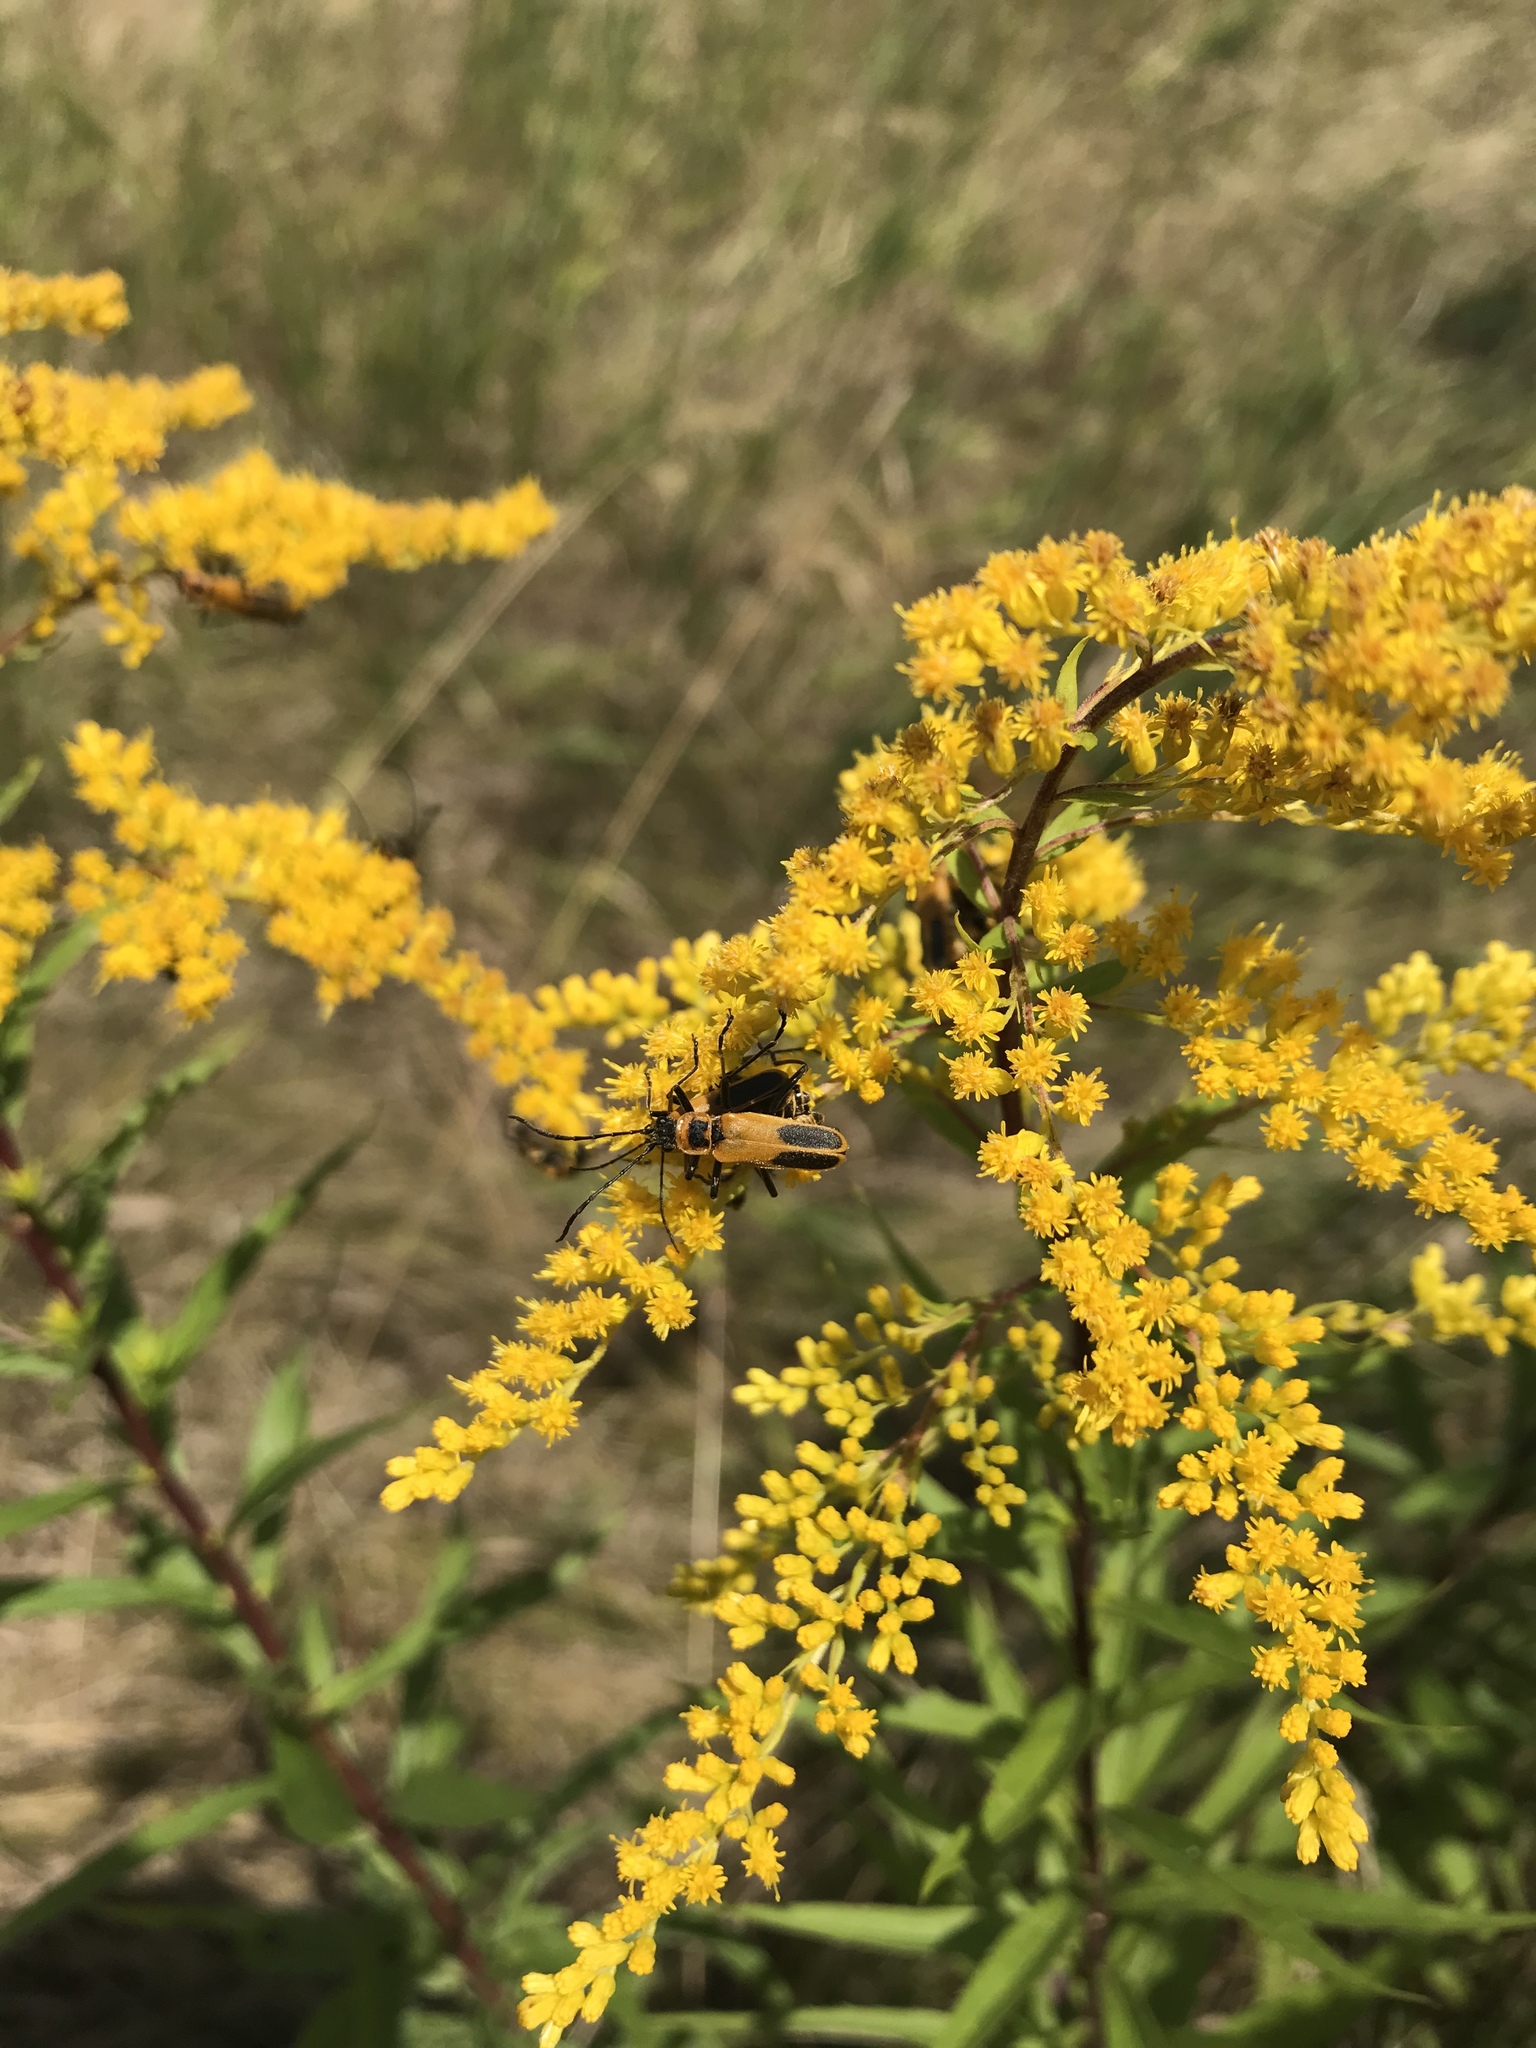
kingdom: Animalia
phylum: Arthropoda
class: Insecta
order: Coleoptera
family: Cantharidae
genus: Chauliognathus
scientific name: Chauliognathus pensylvanicus
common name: Goldenrod soldier beetle
